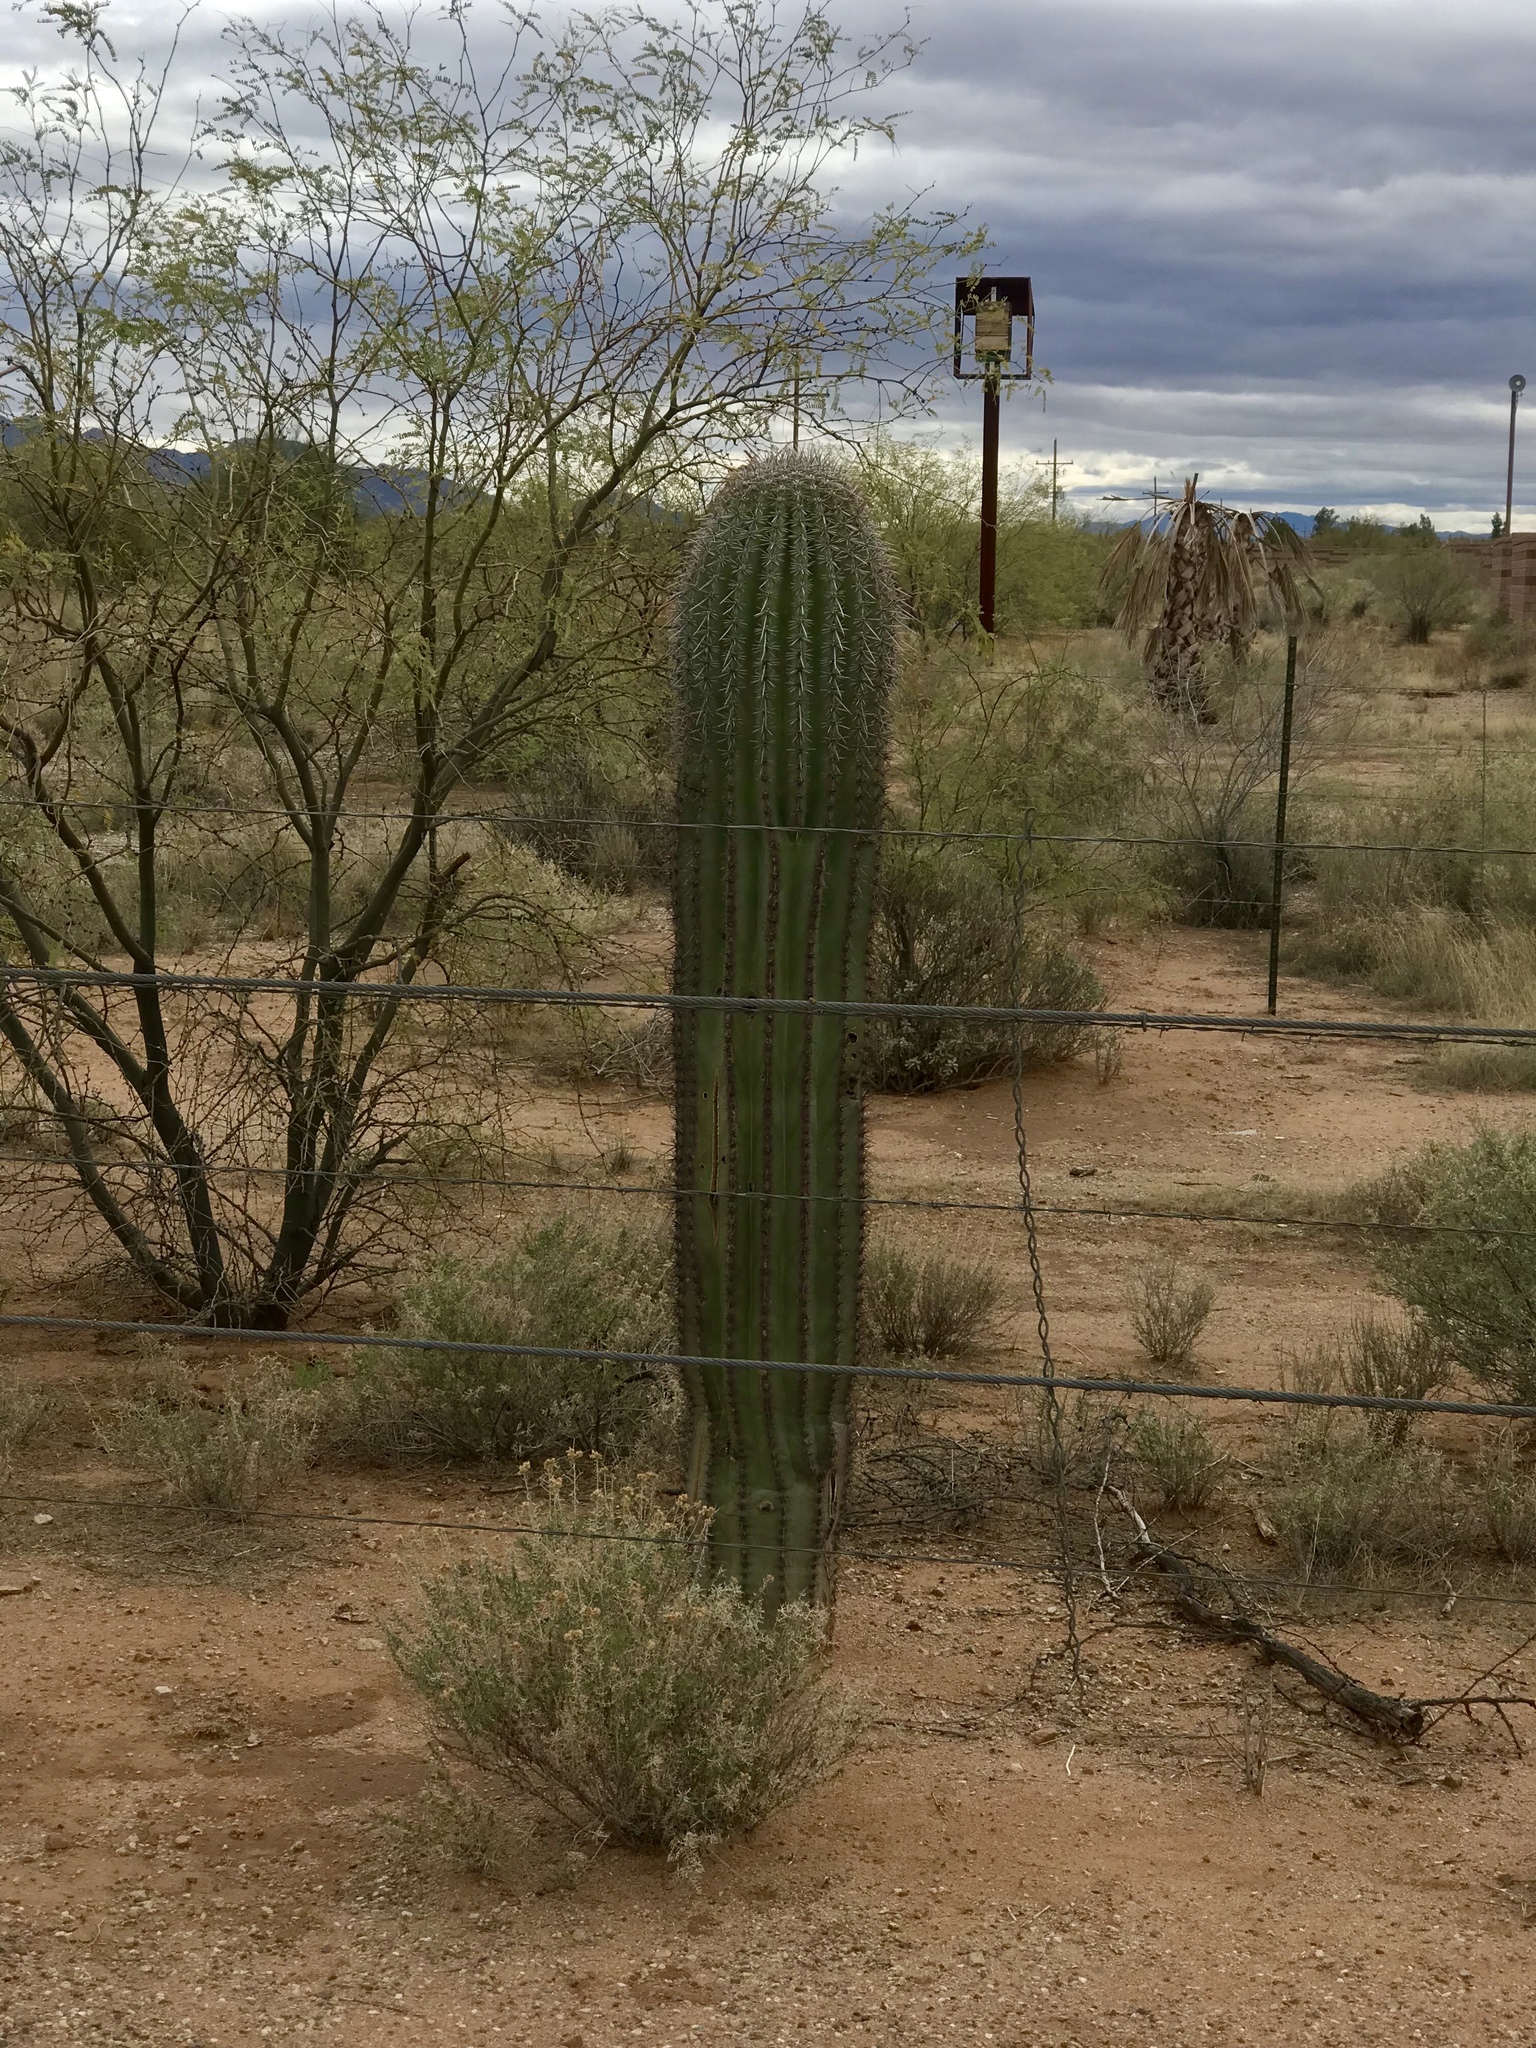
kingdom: Plantae
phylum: Tracheophyta
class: Magnoliopsida
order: Caryophyllales
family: Cactaceae
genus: Carnegiea
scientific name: Carnegiea gigantea
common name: Saguaro
